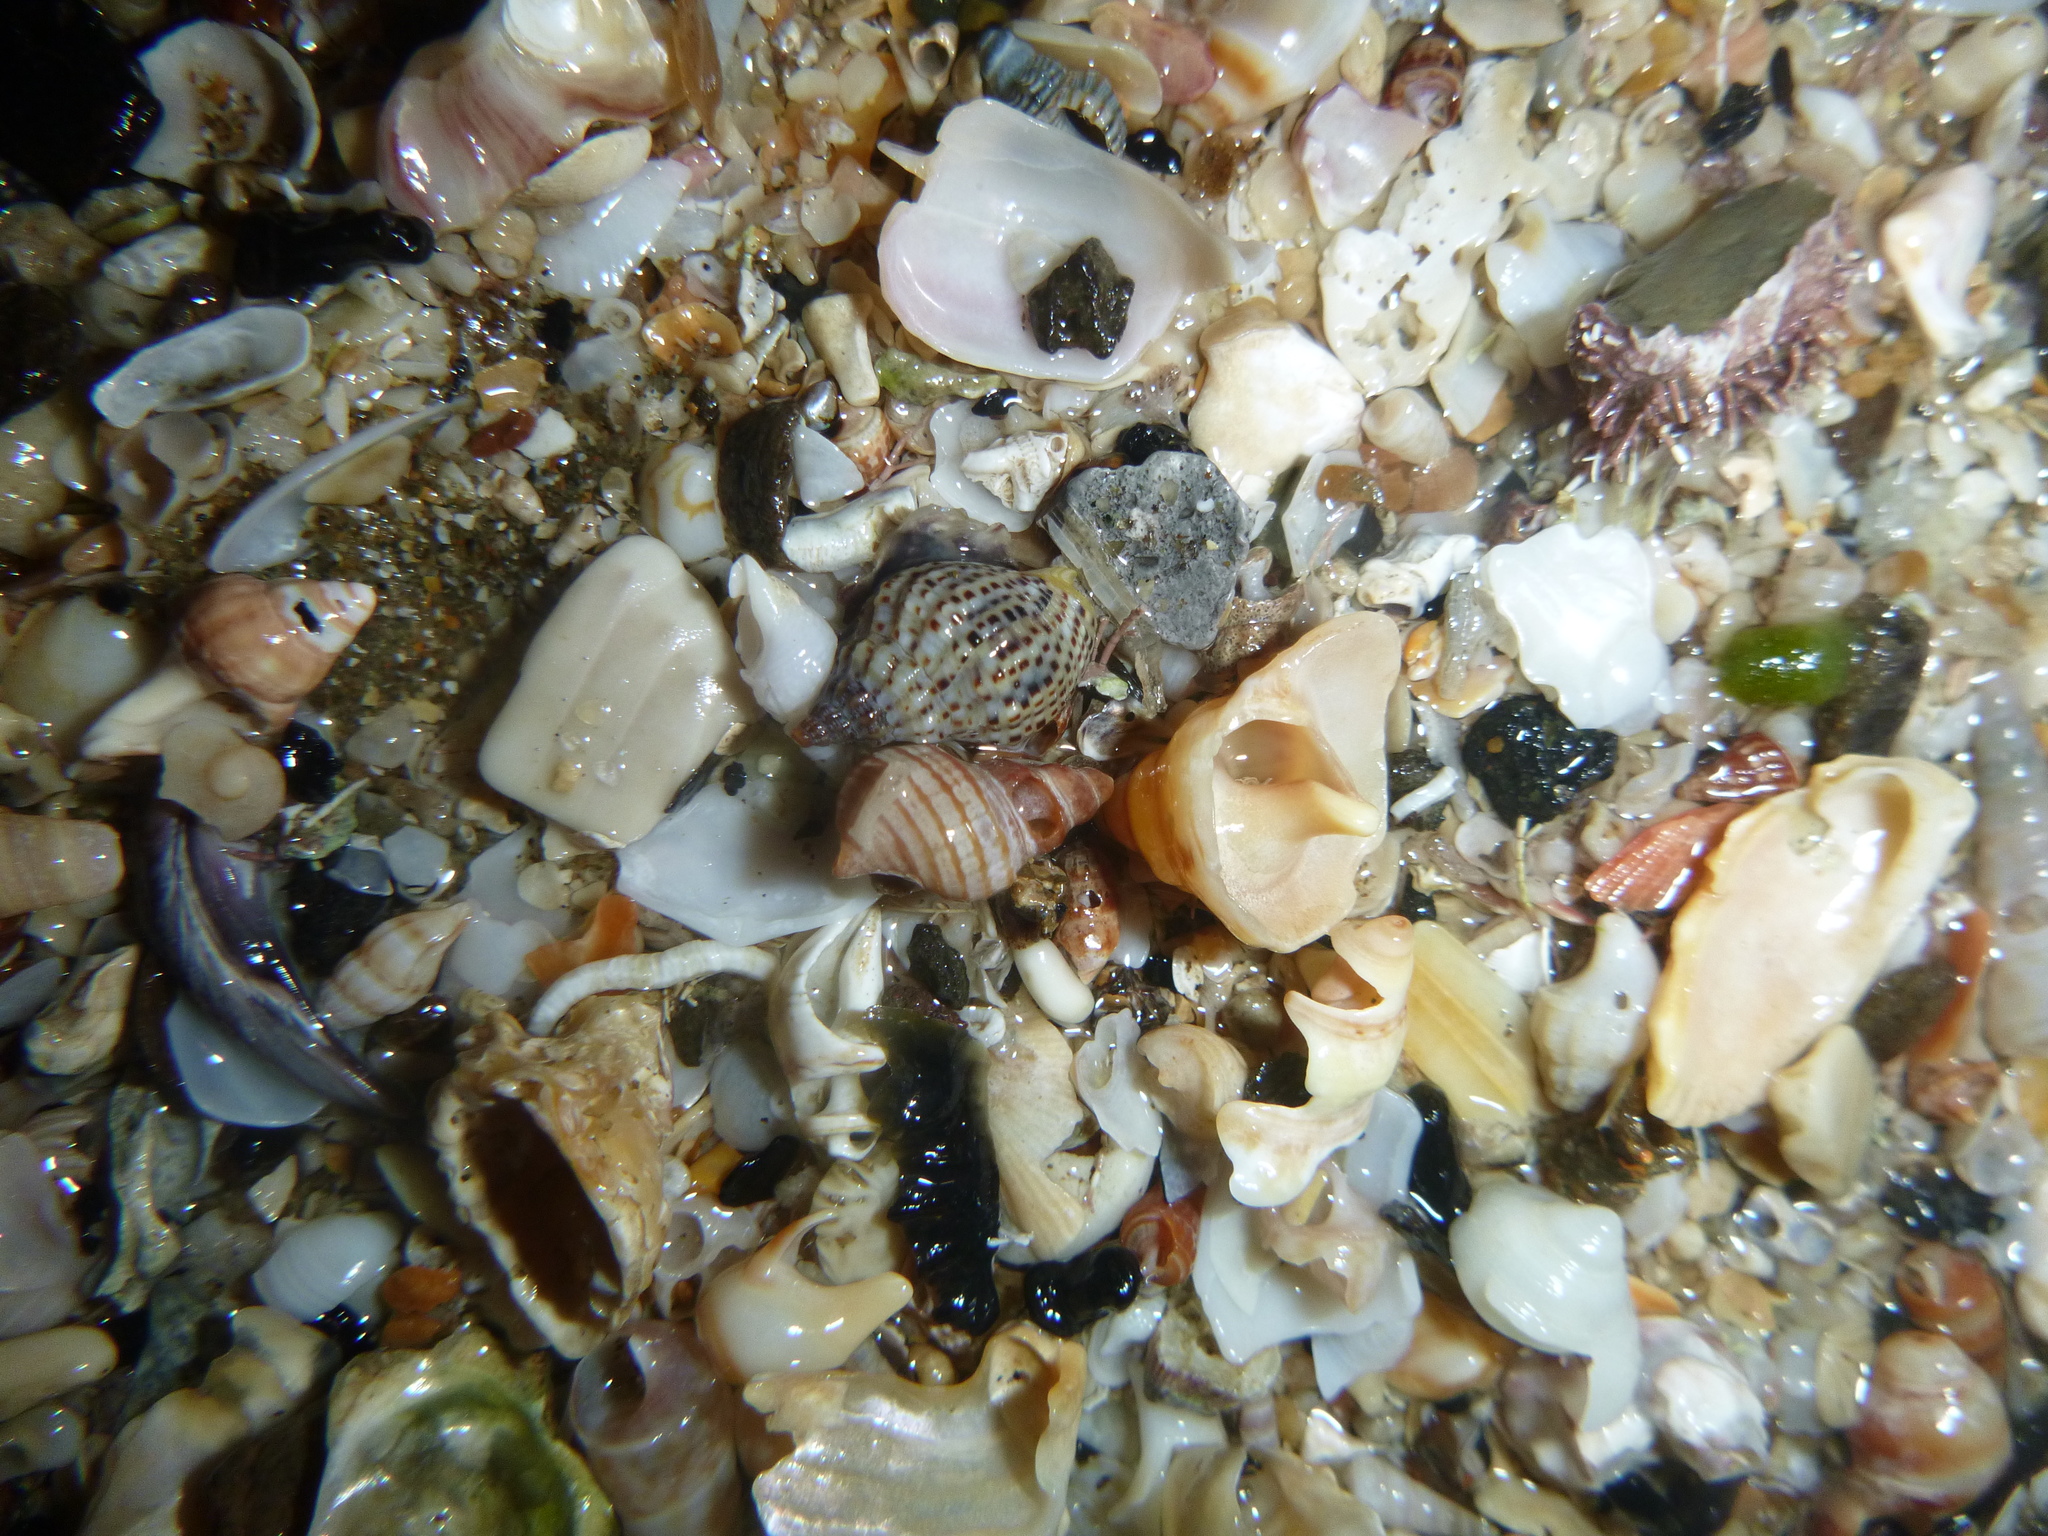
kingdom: Animalia
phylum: Mollusca
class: Gastropoda
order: Neogastropoda
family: Muricidae
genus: Xymene
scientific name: Xymene plebeius
